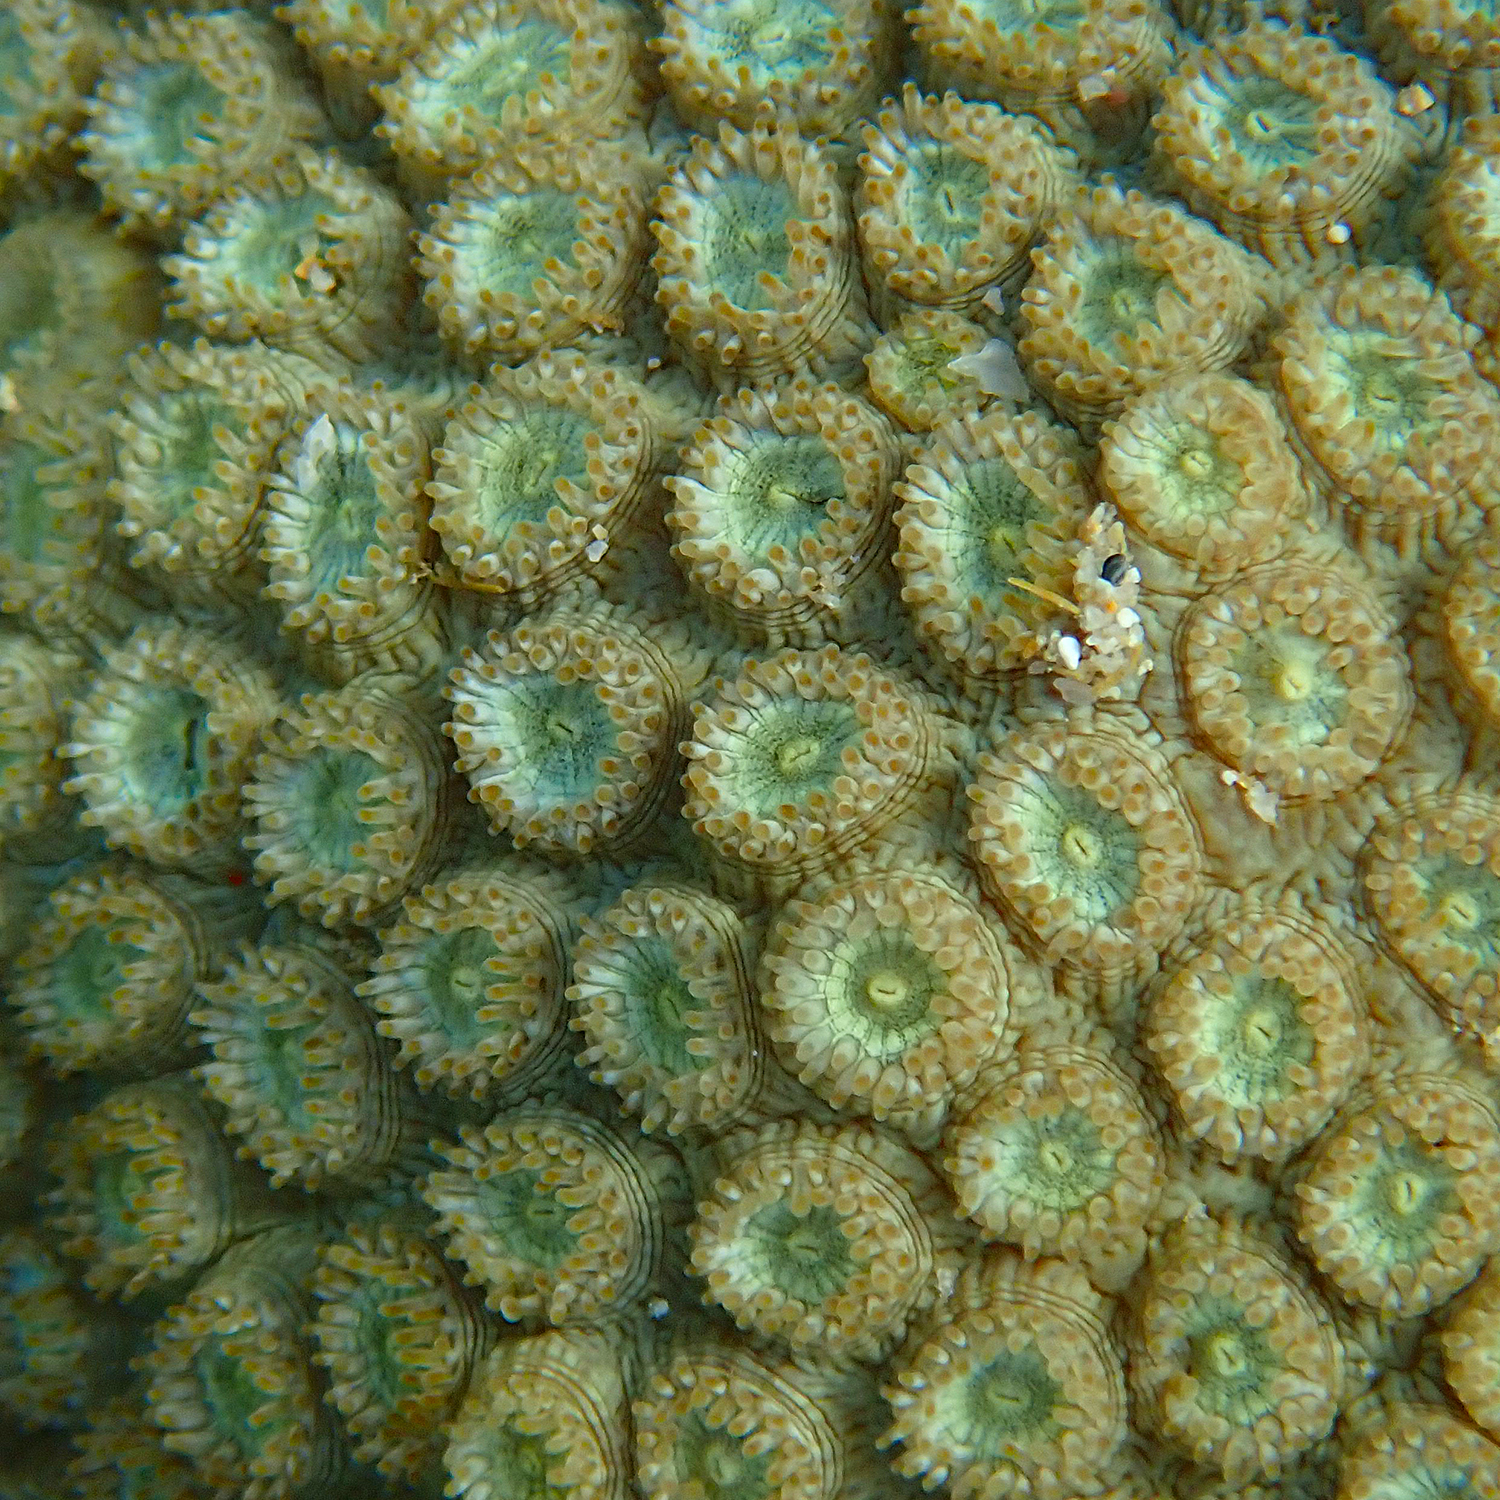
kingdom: Animalia
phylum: Cnidaria
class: Anthozoa
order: Scleractinia
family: Plesiastreidae
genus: Plesiastrea
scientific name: Plesiastrea versipora
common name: Small knob coral
